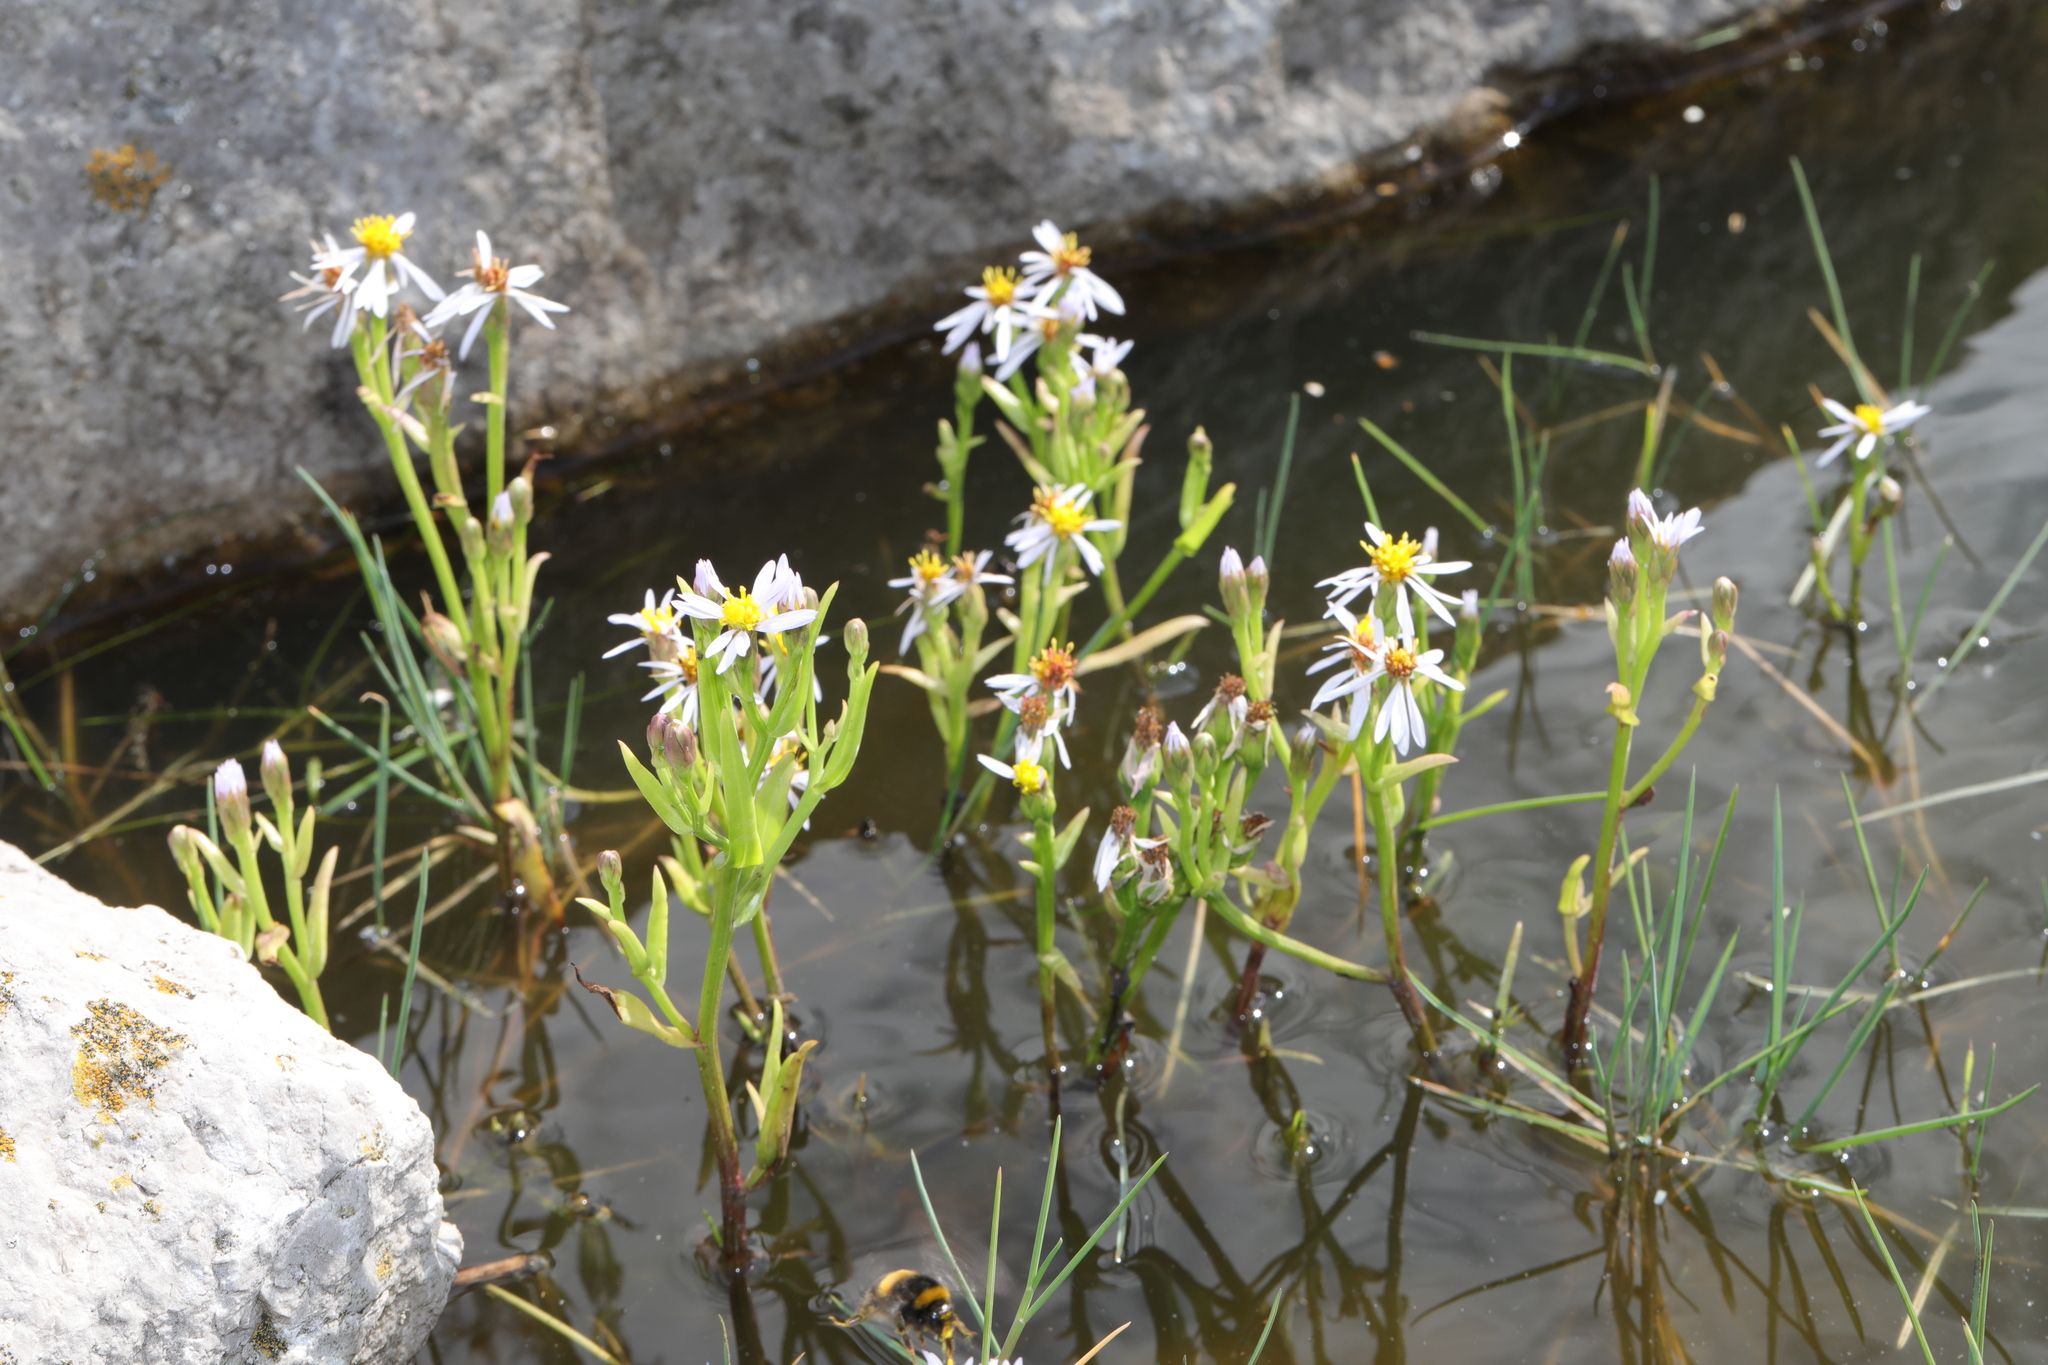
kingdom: Plantae
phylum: Tracheophyta
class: Magnoliopsida
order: Asterales
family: Asteraceae
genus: Tripolium
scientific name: Tripolium pannonicum
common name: Sea aster
